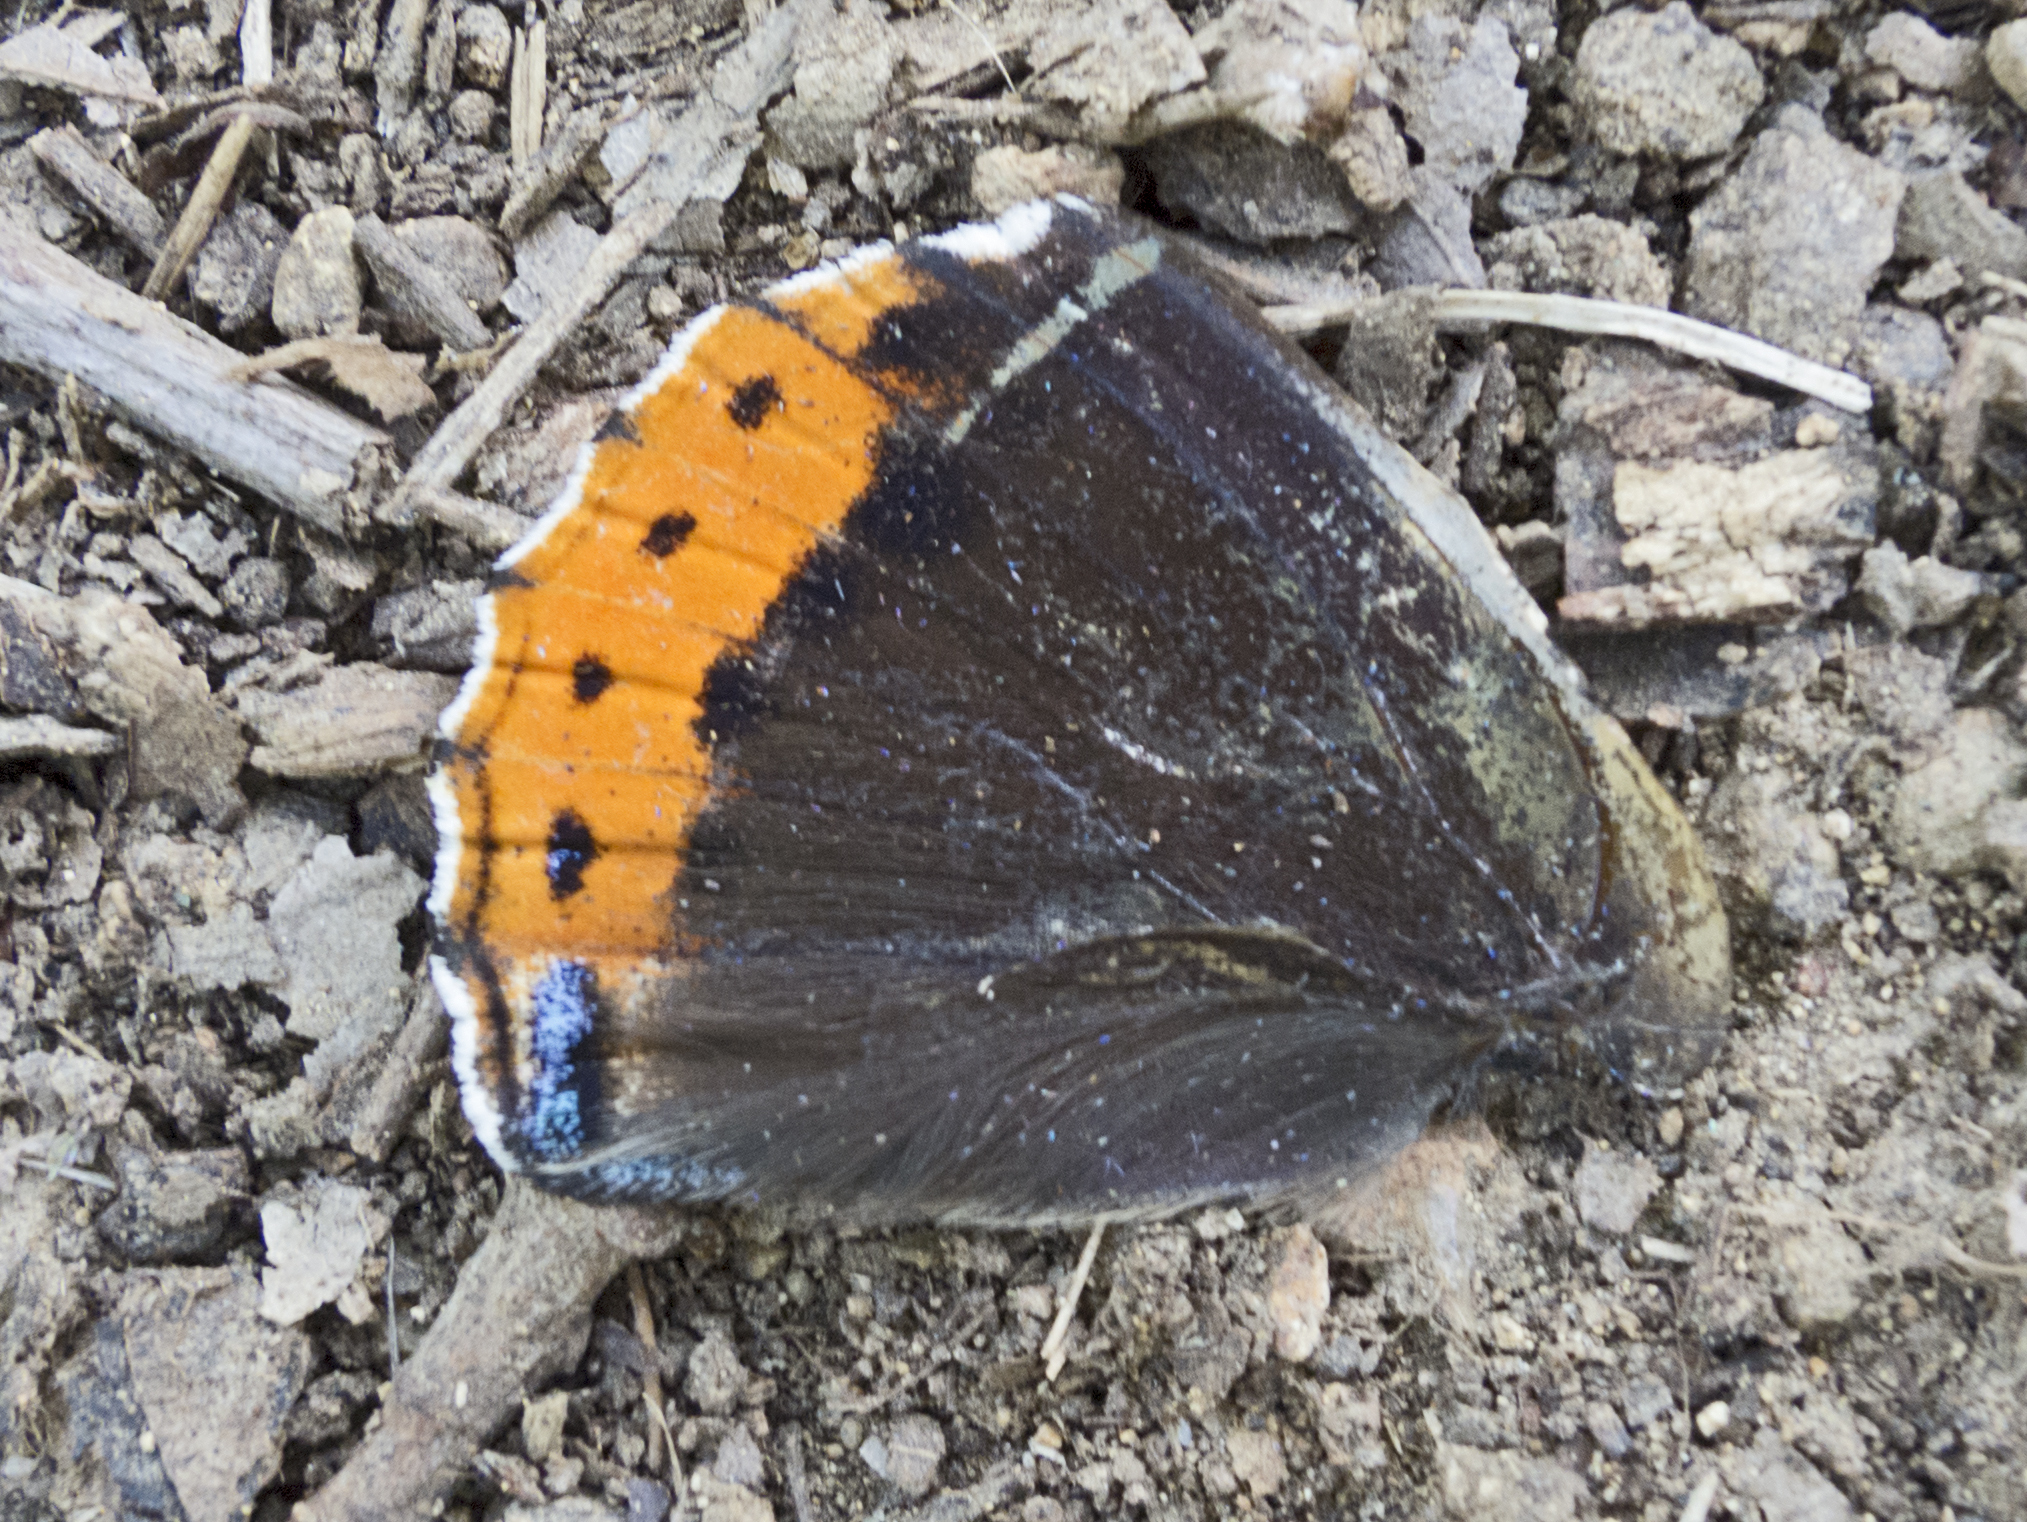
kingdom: Animalia
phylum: Arthropoda
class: Insecta
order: Lepidoptera
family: Nymphalidae
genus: Vanessa
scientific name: Vanessa atalanta
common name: Red admiral
